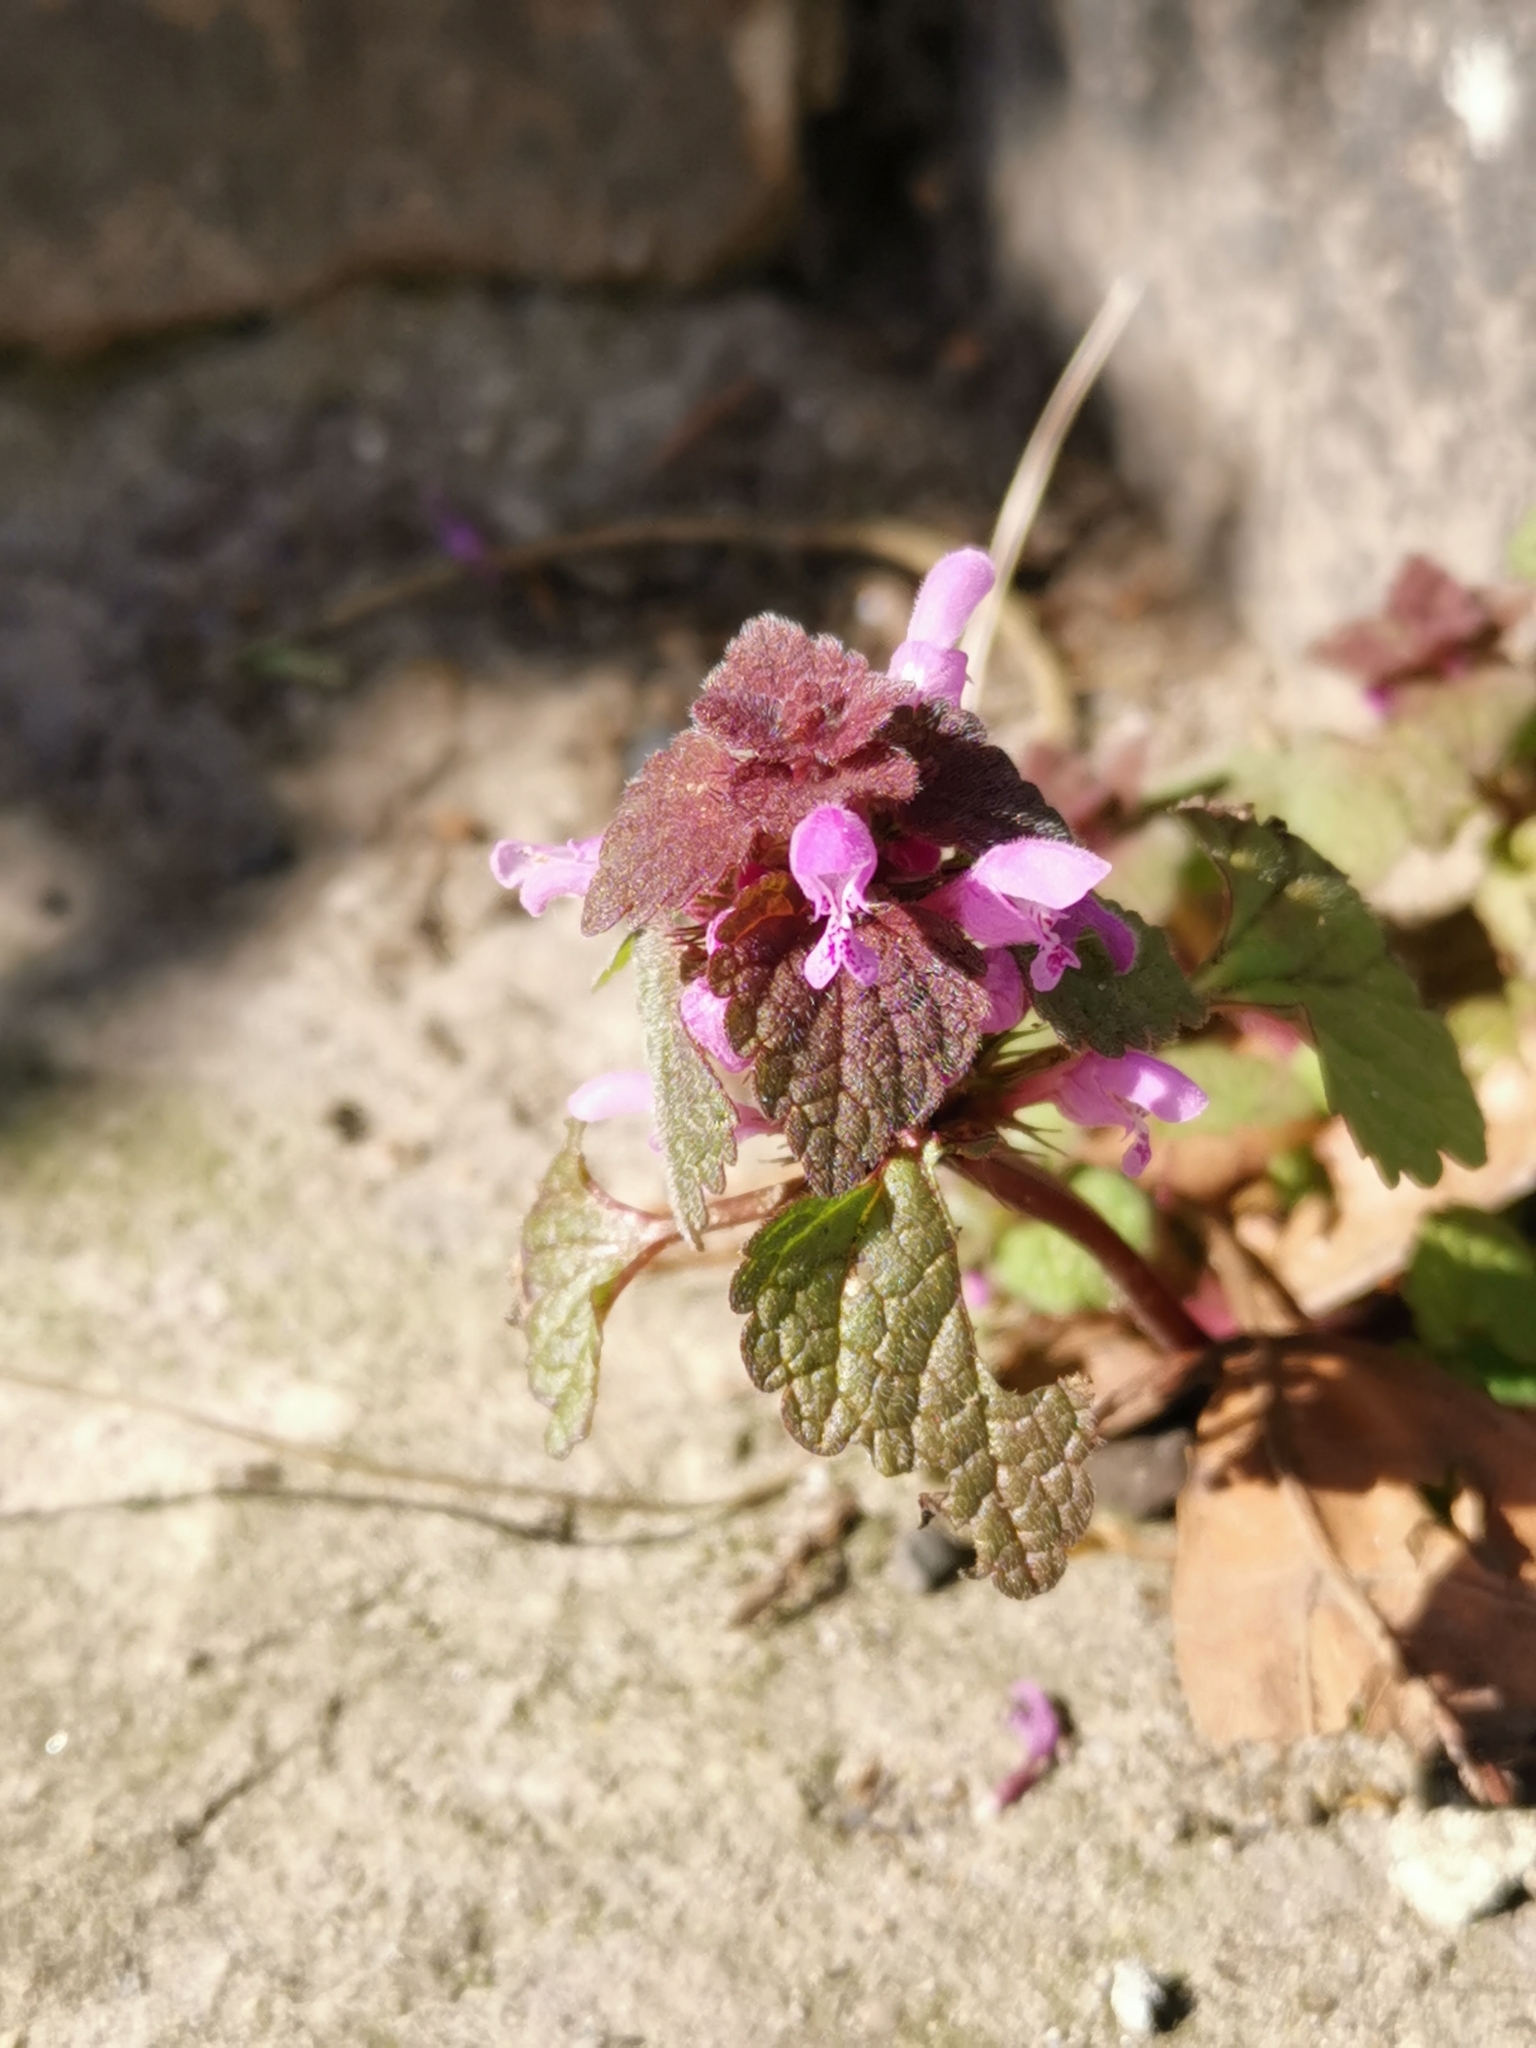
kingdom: Plantae
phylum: Tracheophyta
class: Magnoliopsida
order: Lamiales
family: Lamiaceae
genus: Lamium
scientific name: Lamium purpureum
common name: Red dead-nettle
